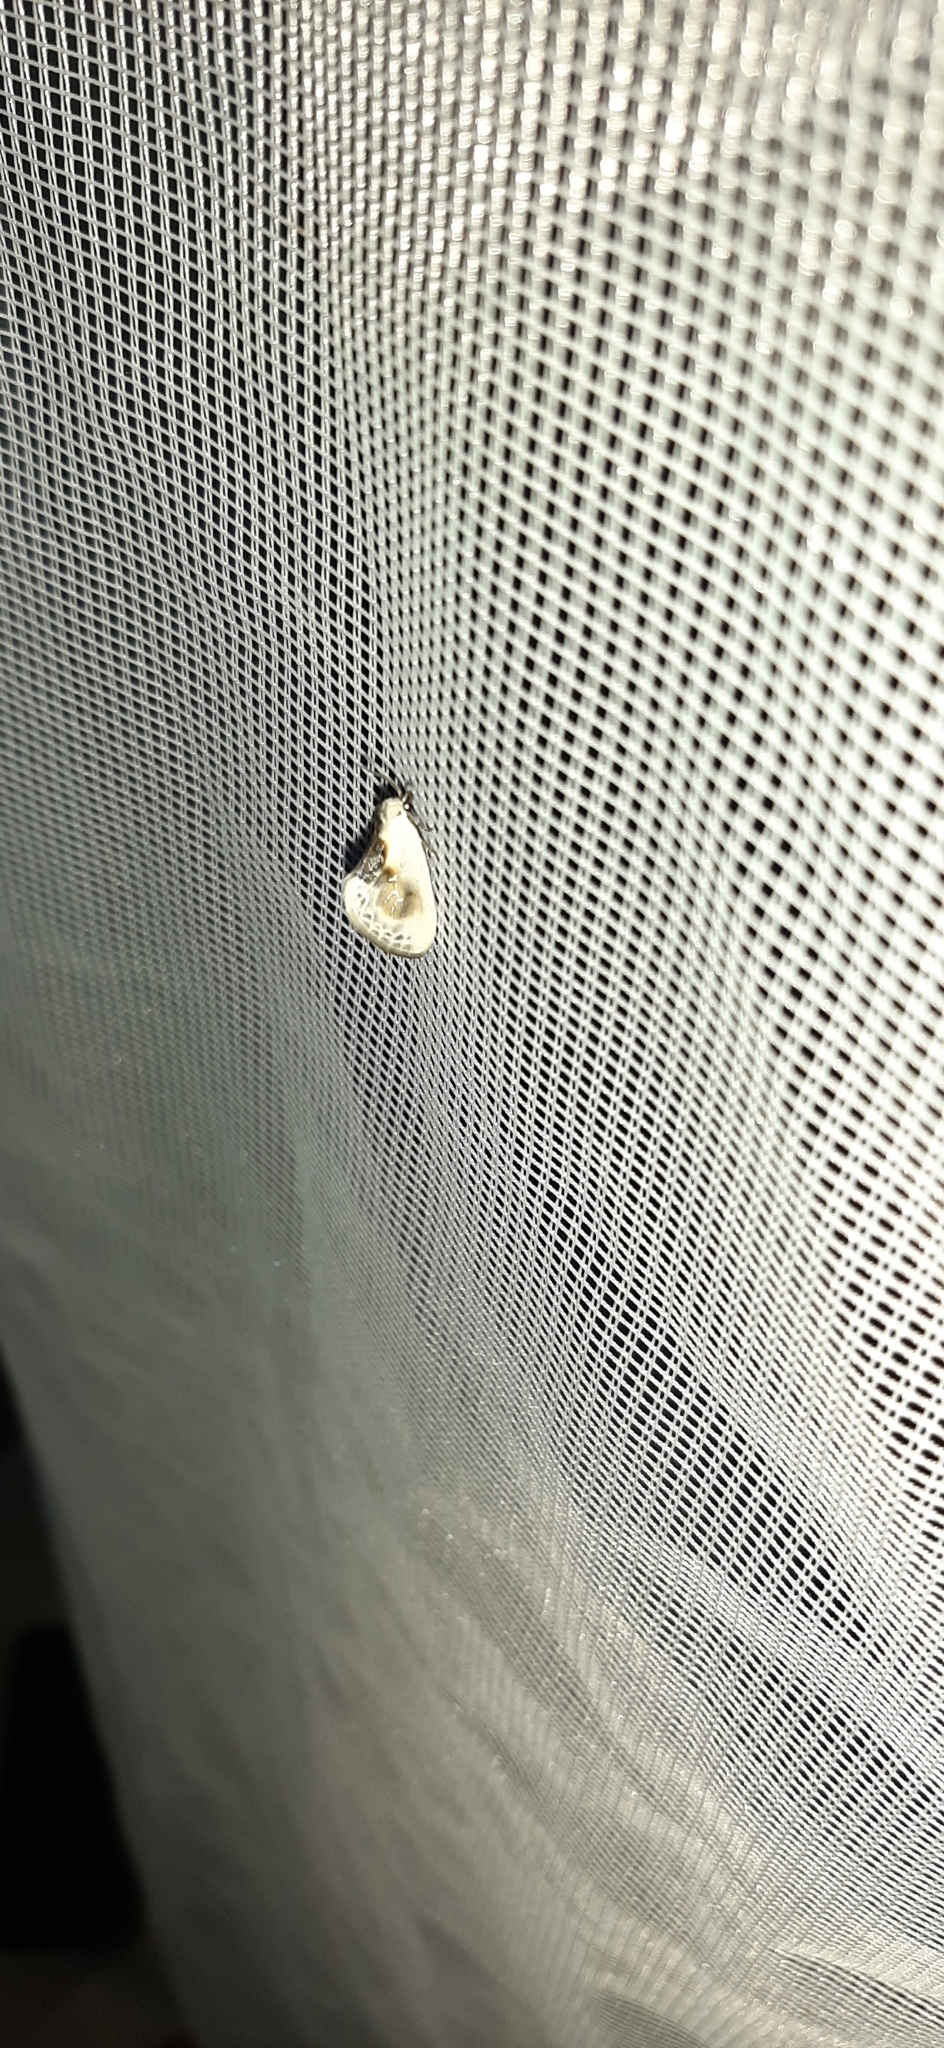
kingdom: Animalia
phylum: Arthropoda
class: Insecta
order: Lepidoptera
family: Drepanidae
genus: Cilix
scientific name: Cilix glaucata
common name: Chinese character
